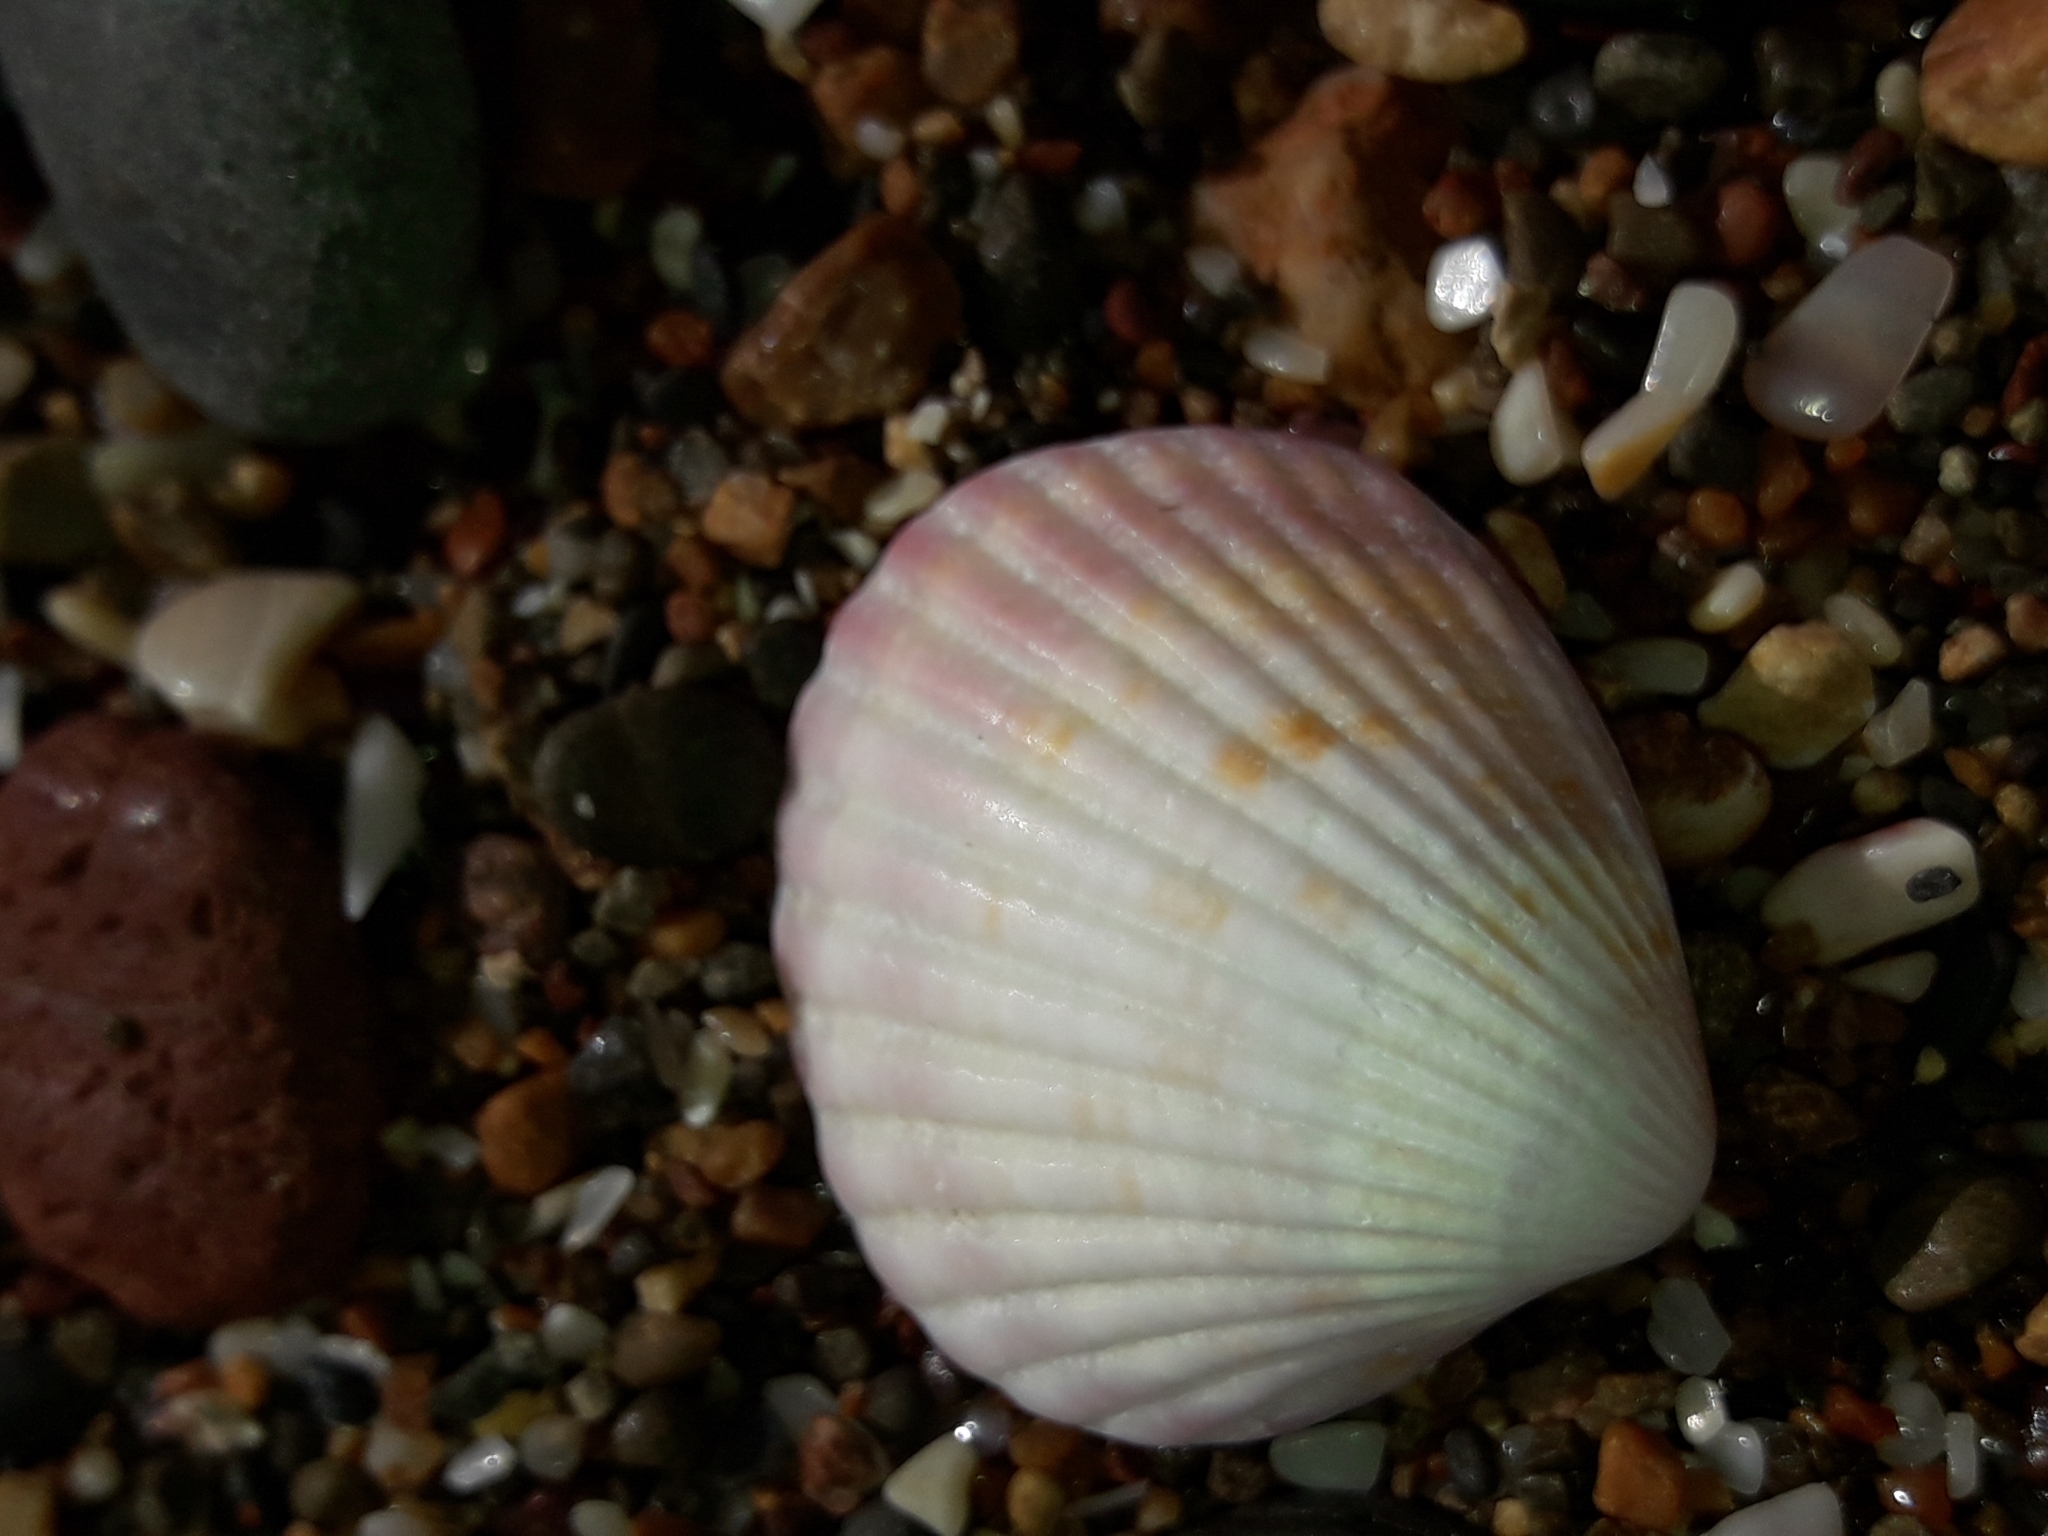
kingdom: Animalia
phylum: Mollusca
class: Bivalvia
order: Carditida
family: Carditidae
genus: Purpurocardia
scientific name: Purpurocardia purpurata
